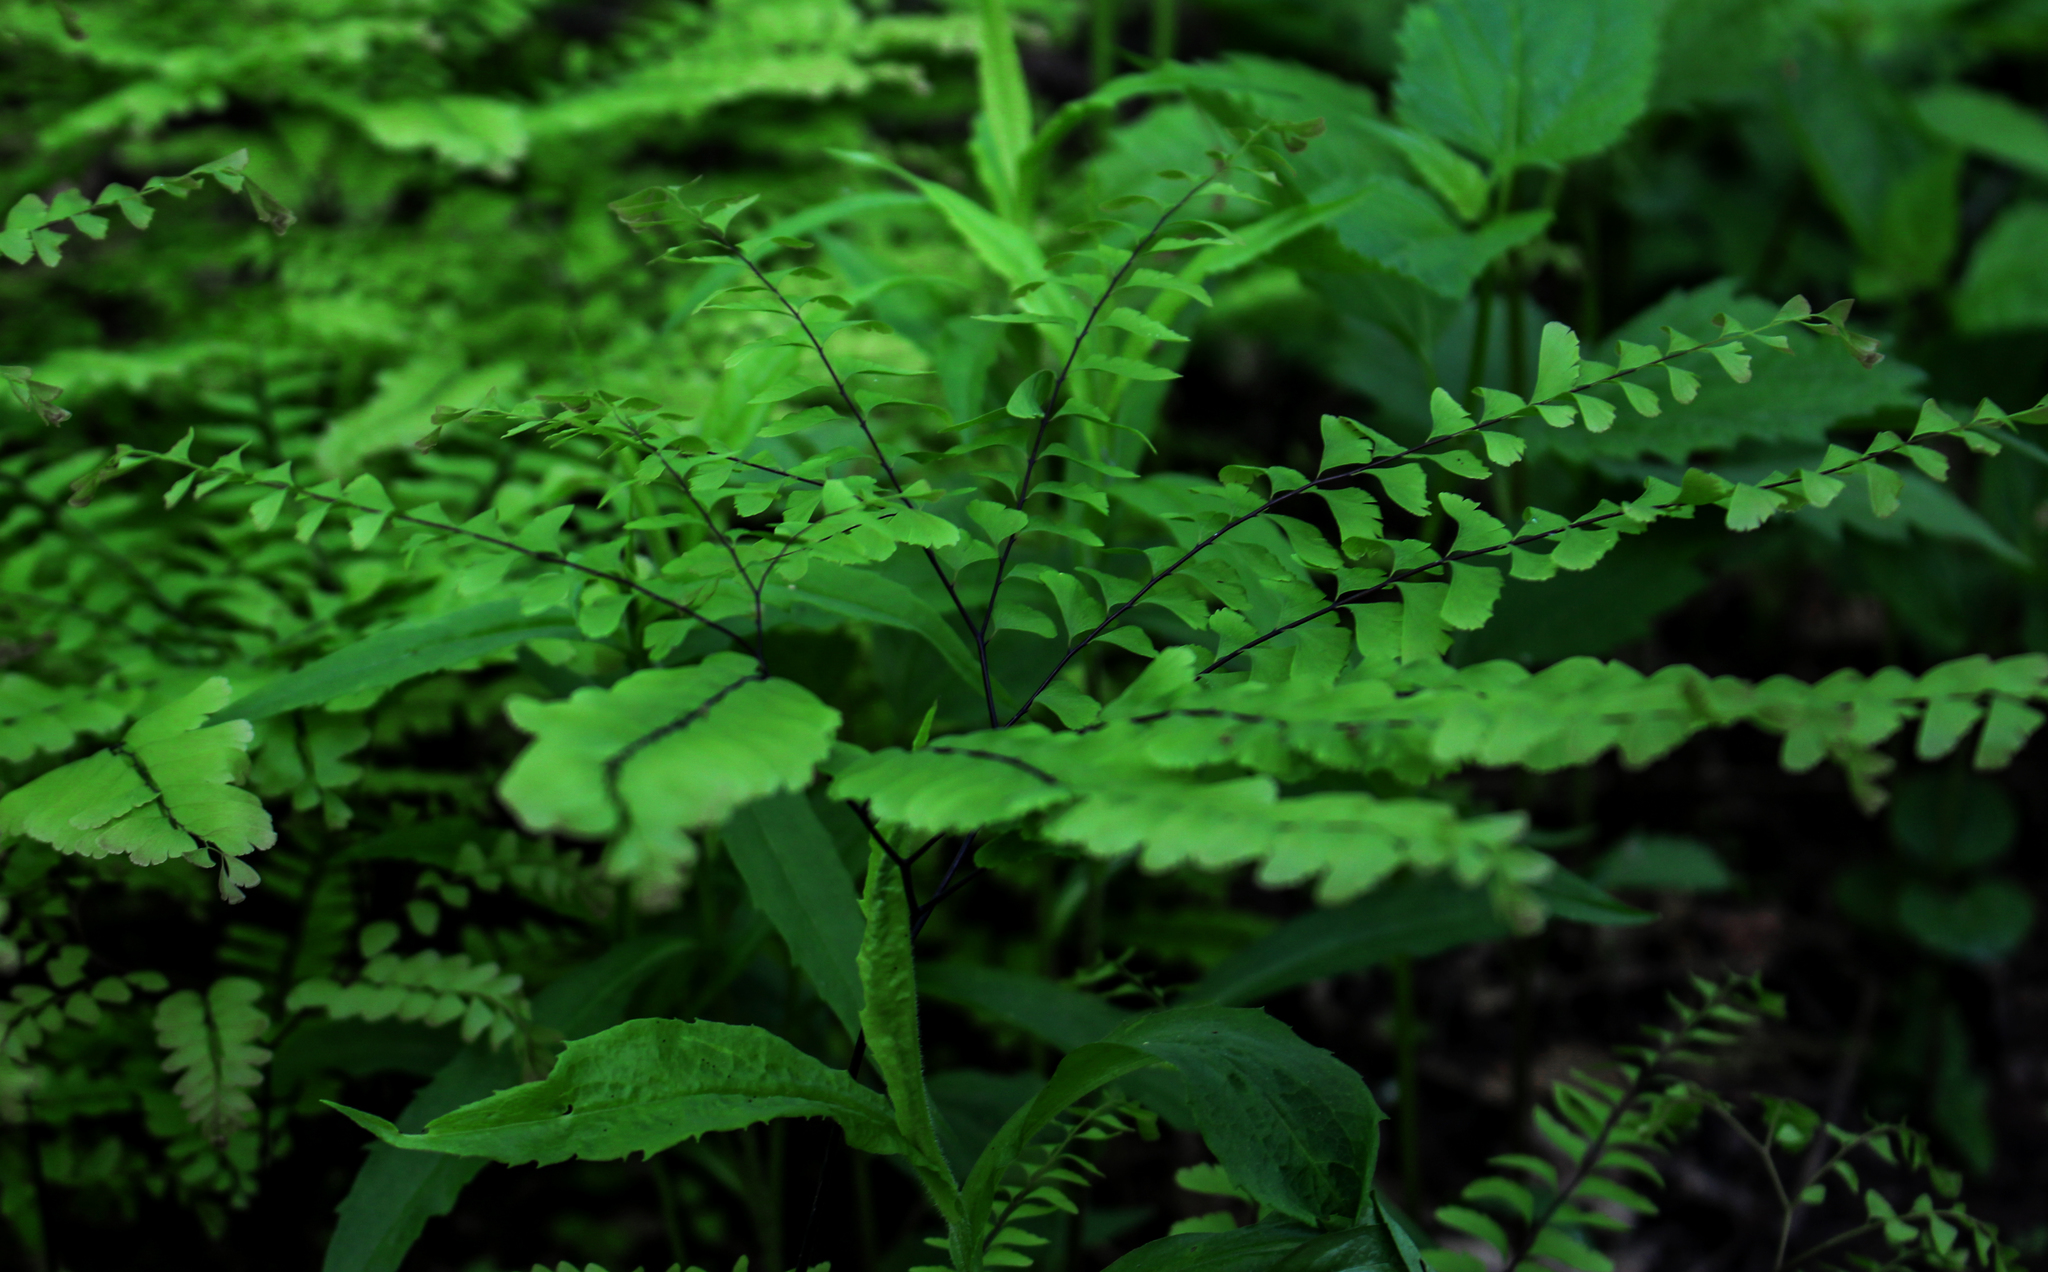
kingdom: Plantae
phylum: Tracheophyta
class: Polypodiopsida
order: Polypodiales
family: Pteridaceae
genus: Adiantum
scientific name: Adiantum pedatum
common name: Five-finger fern
